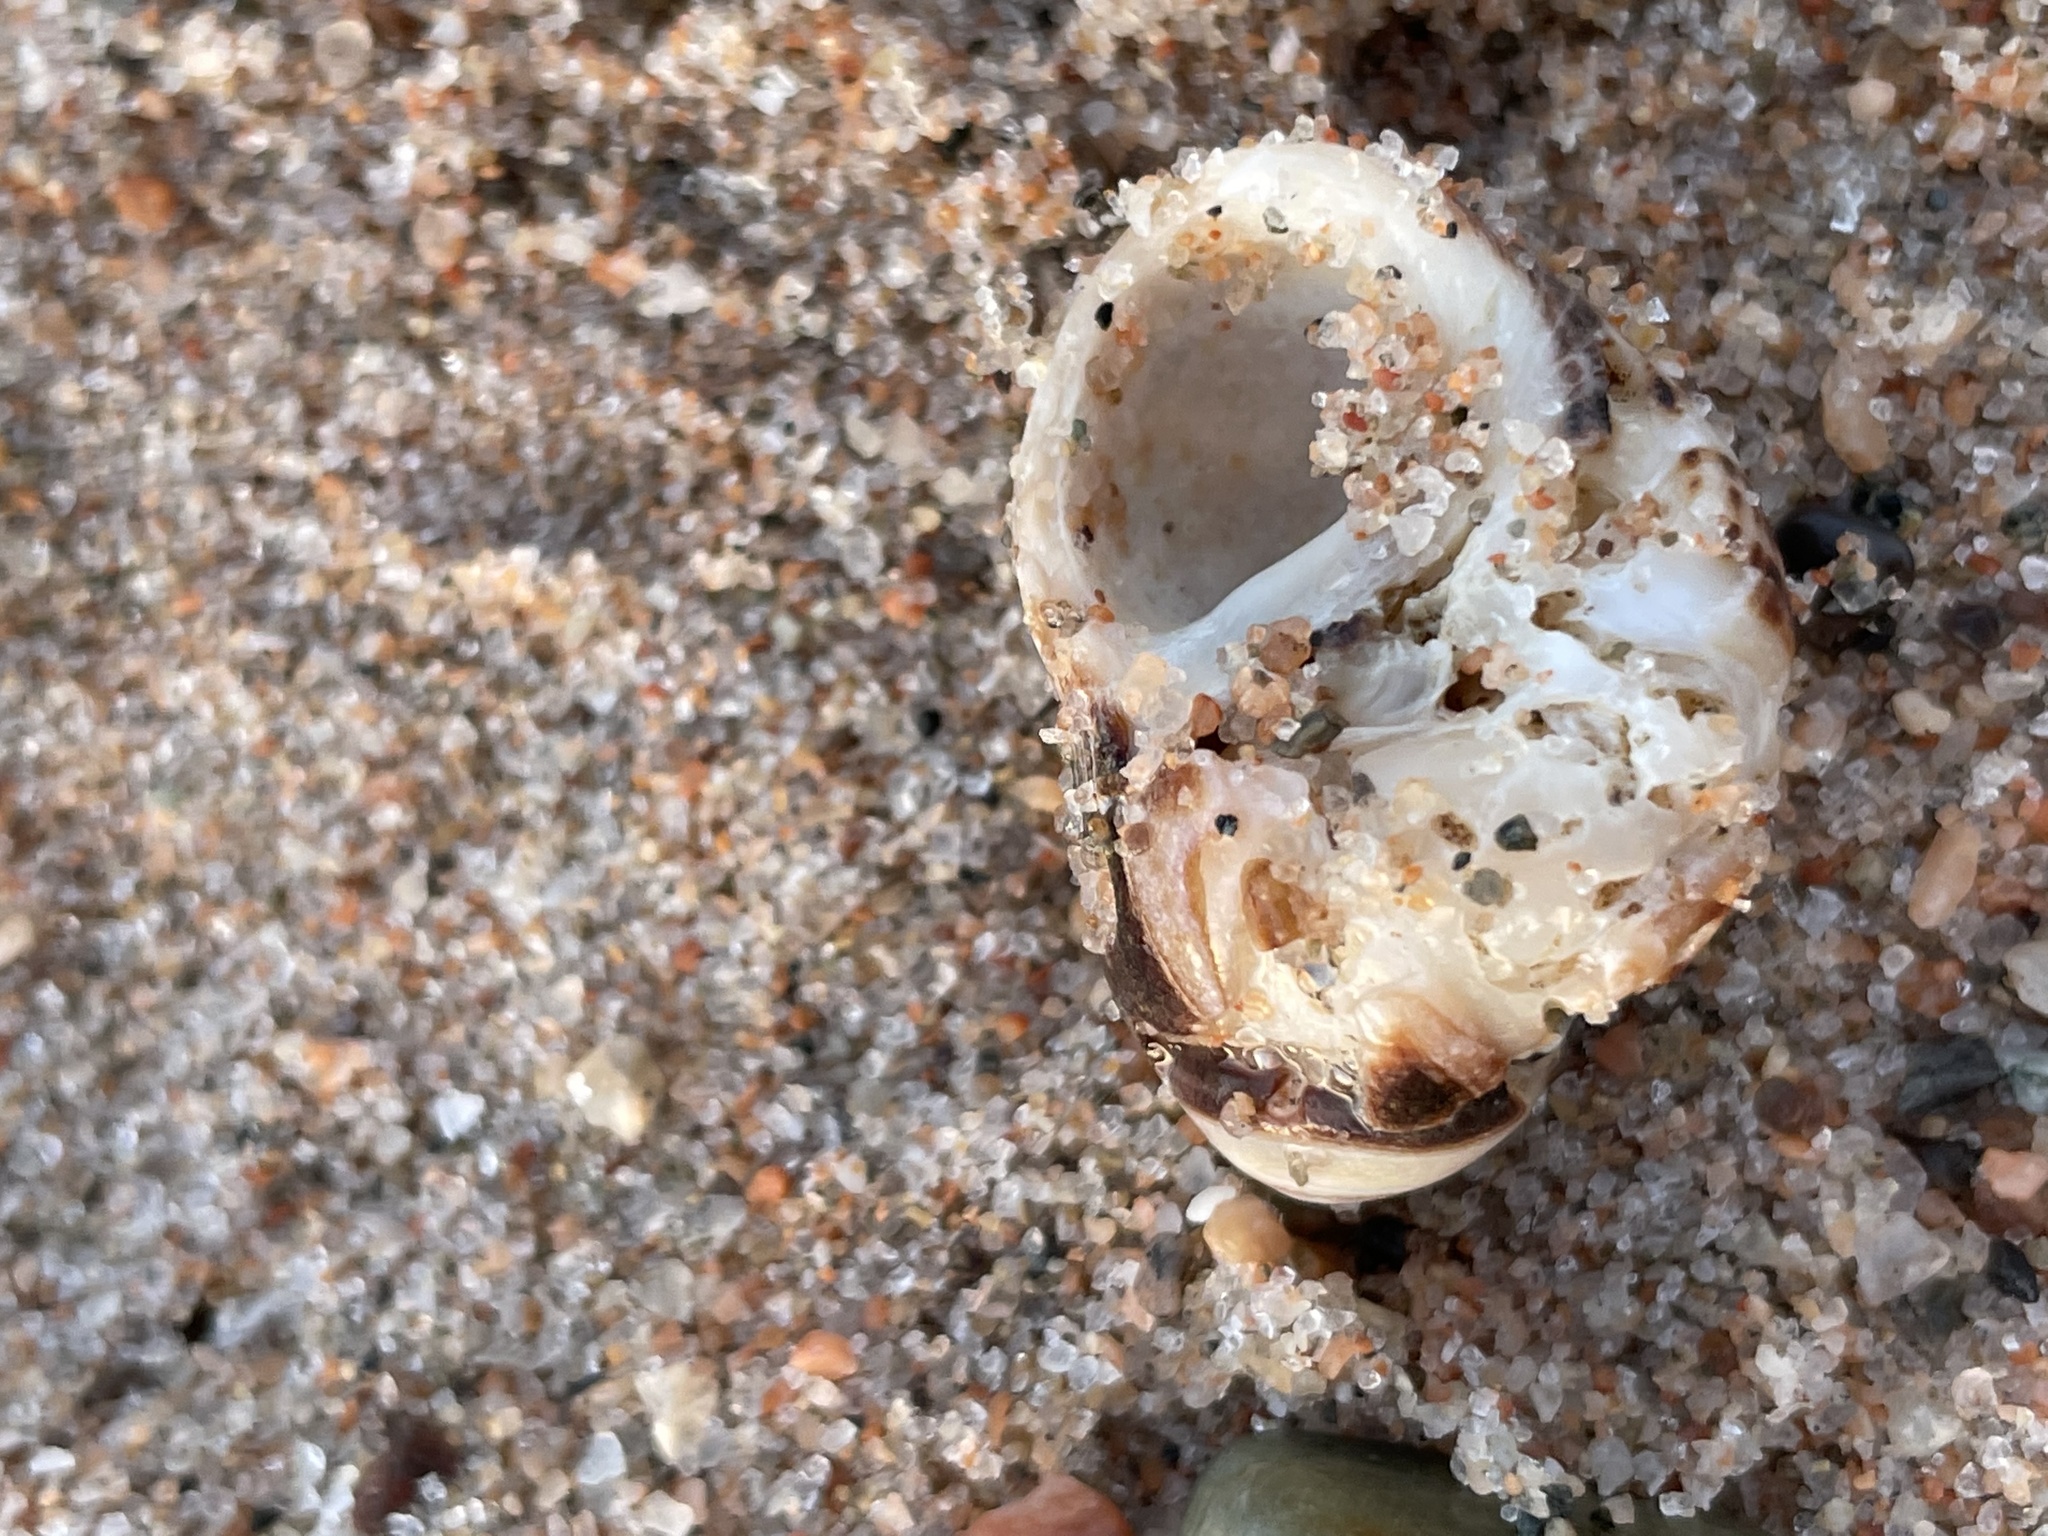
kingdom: Animalia
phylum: Mollusca
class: Gastropoda
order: Littorinimorpha
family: Littorinidae
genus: Littorina
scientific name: Littorina littorea
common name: Common periwinkle
